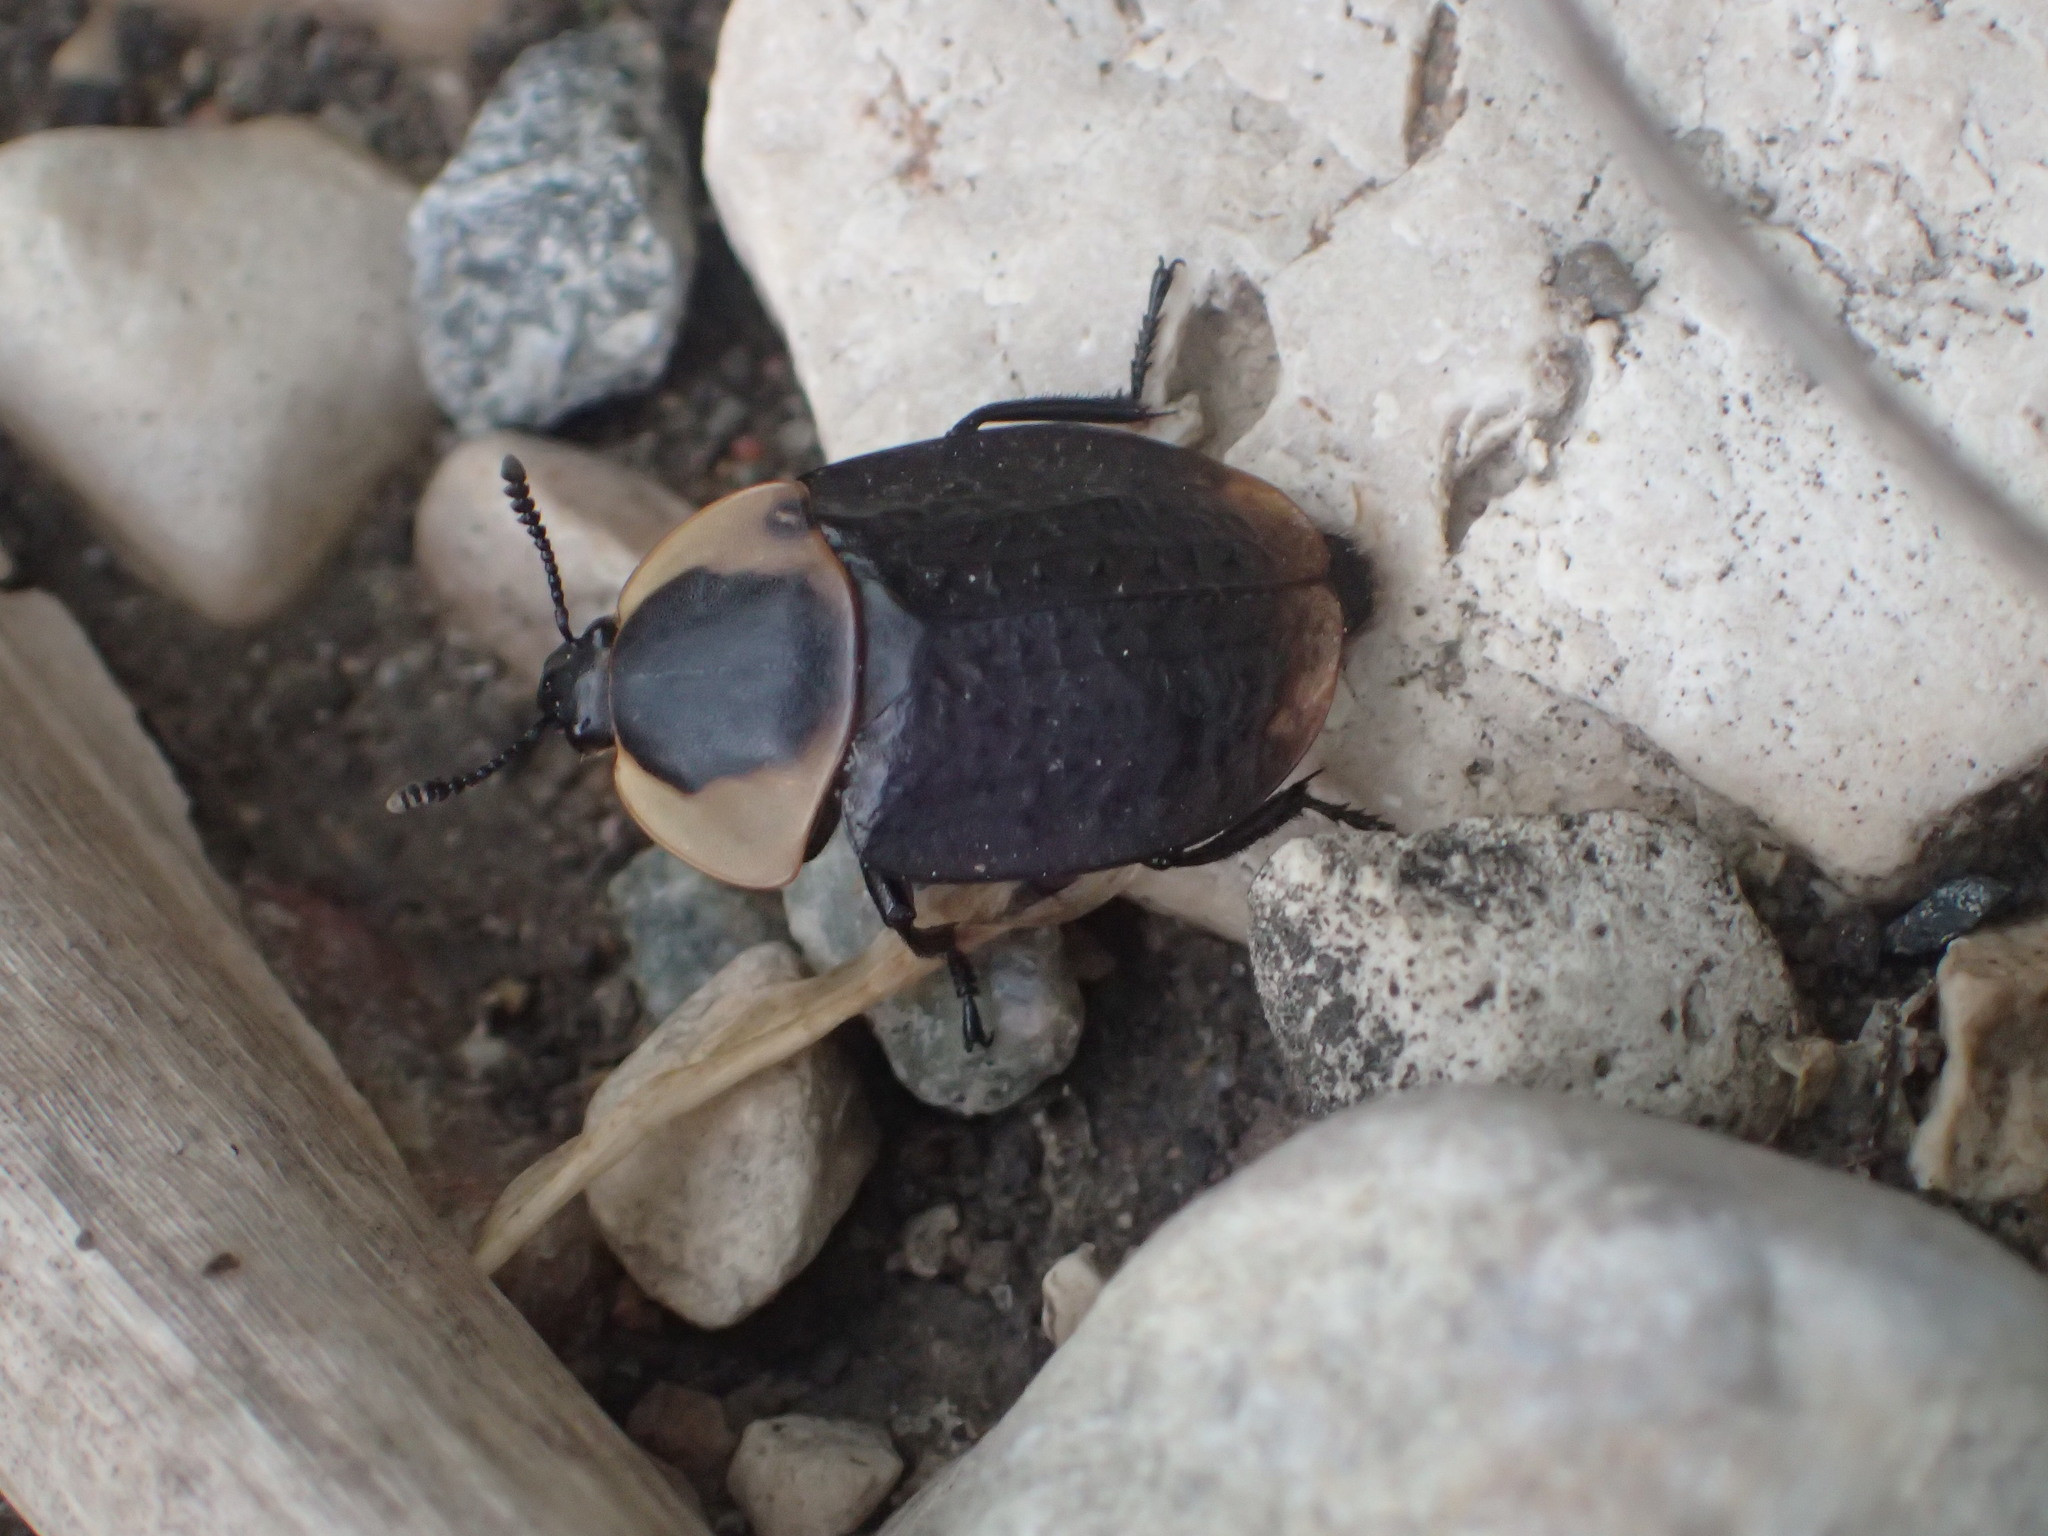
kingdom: Animalia
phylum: Arthropoda
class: Insecta
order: Coleoptera
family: Staphylinidae
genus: Necrophila
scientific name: Necrophila americana
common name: American carrion beetle
